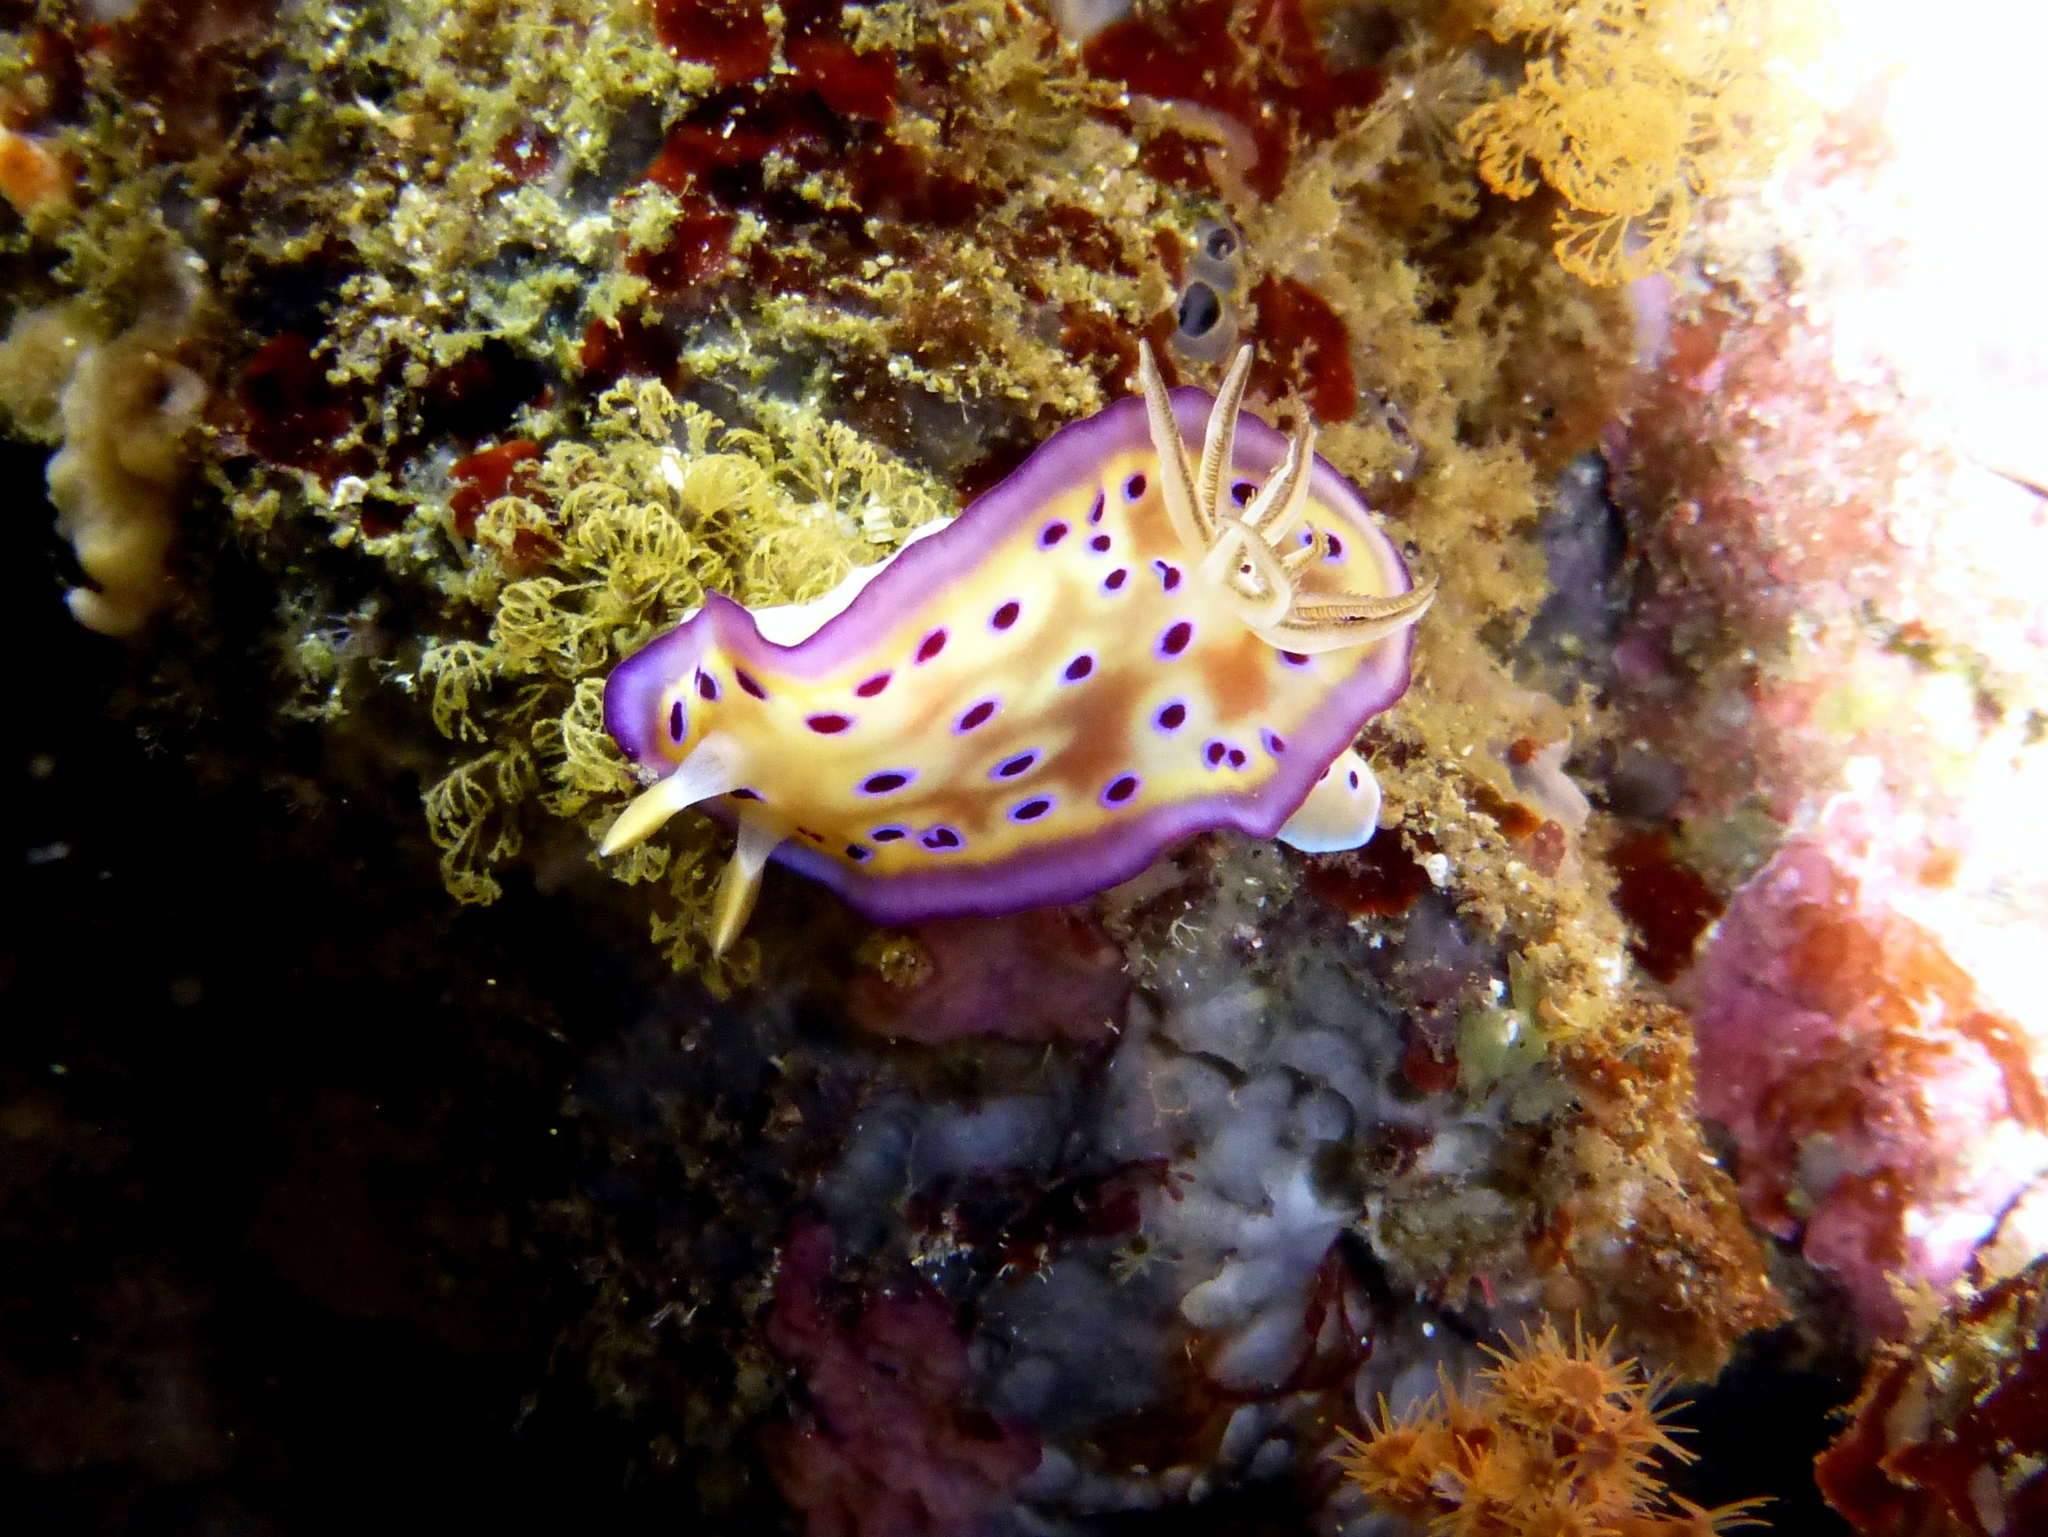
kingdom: Animalia
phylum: Mollusca
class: Gastropoda
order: Nudibranchia
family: Chromodorididae
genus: Goniobranchus
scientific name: Goniobranchus kuniei
